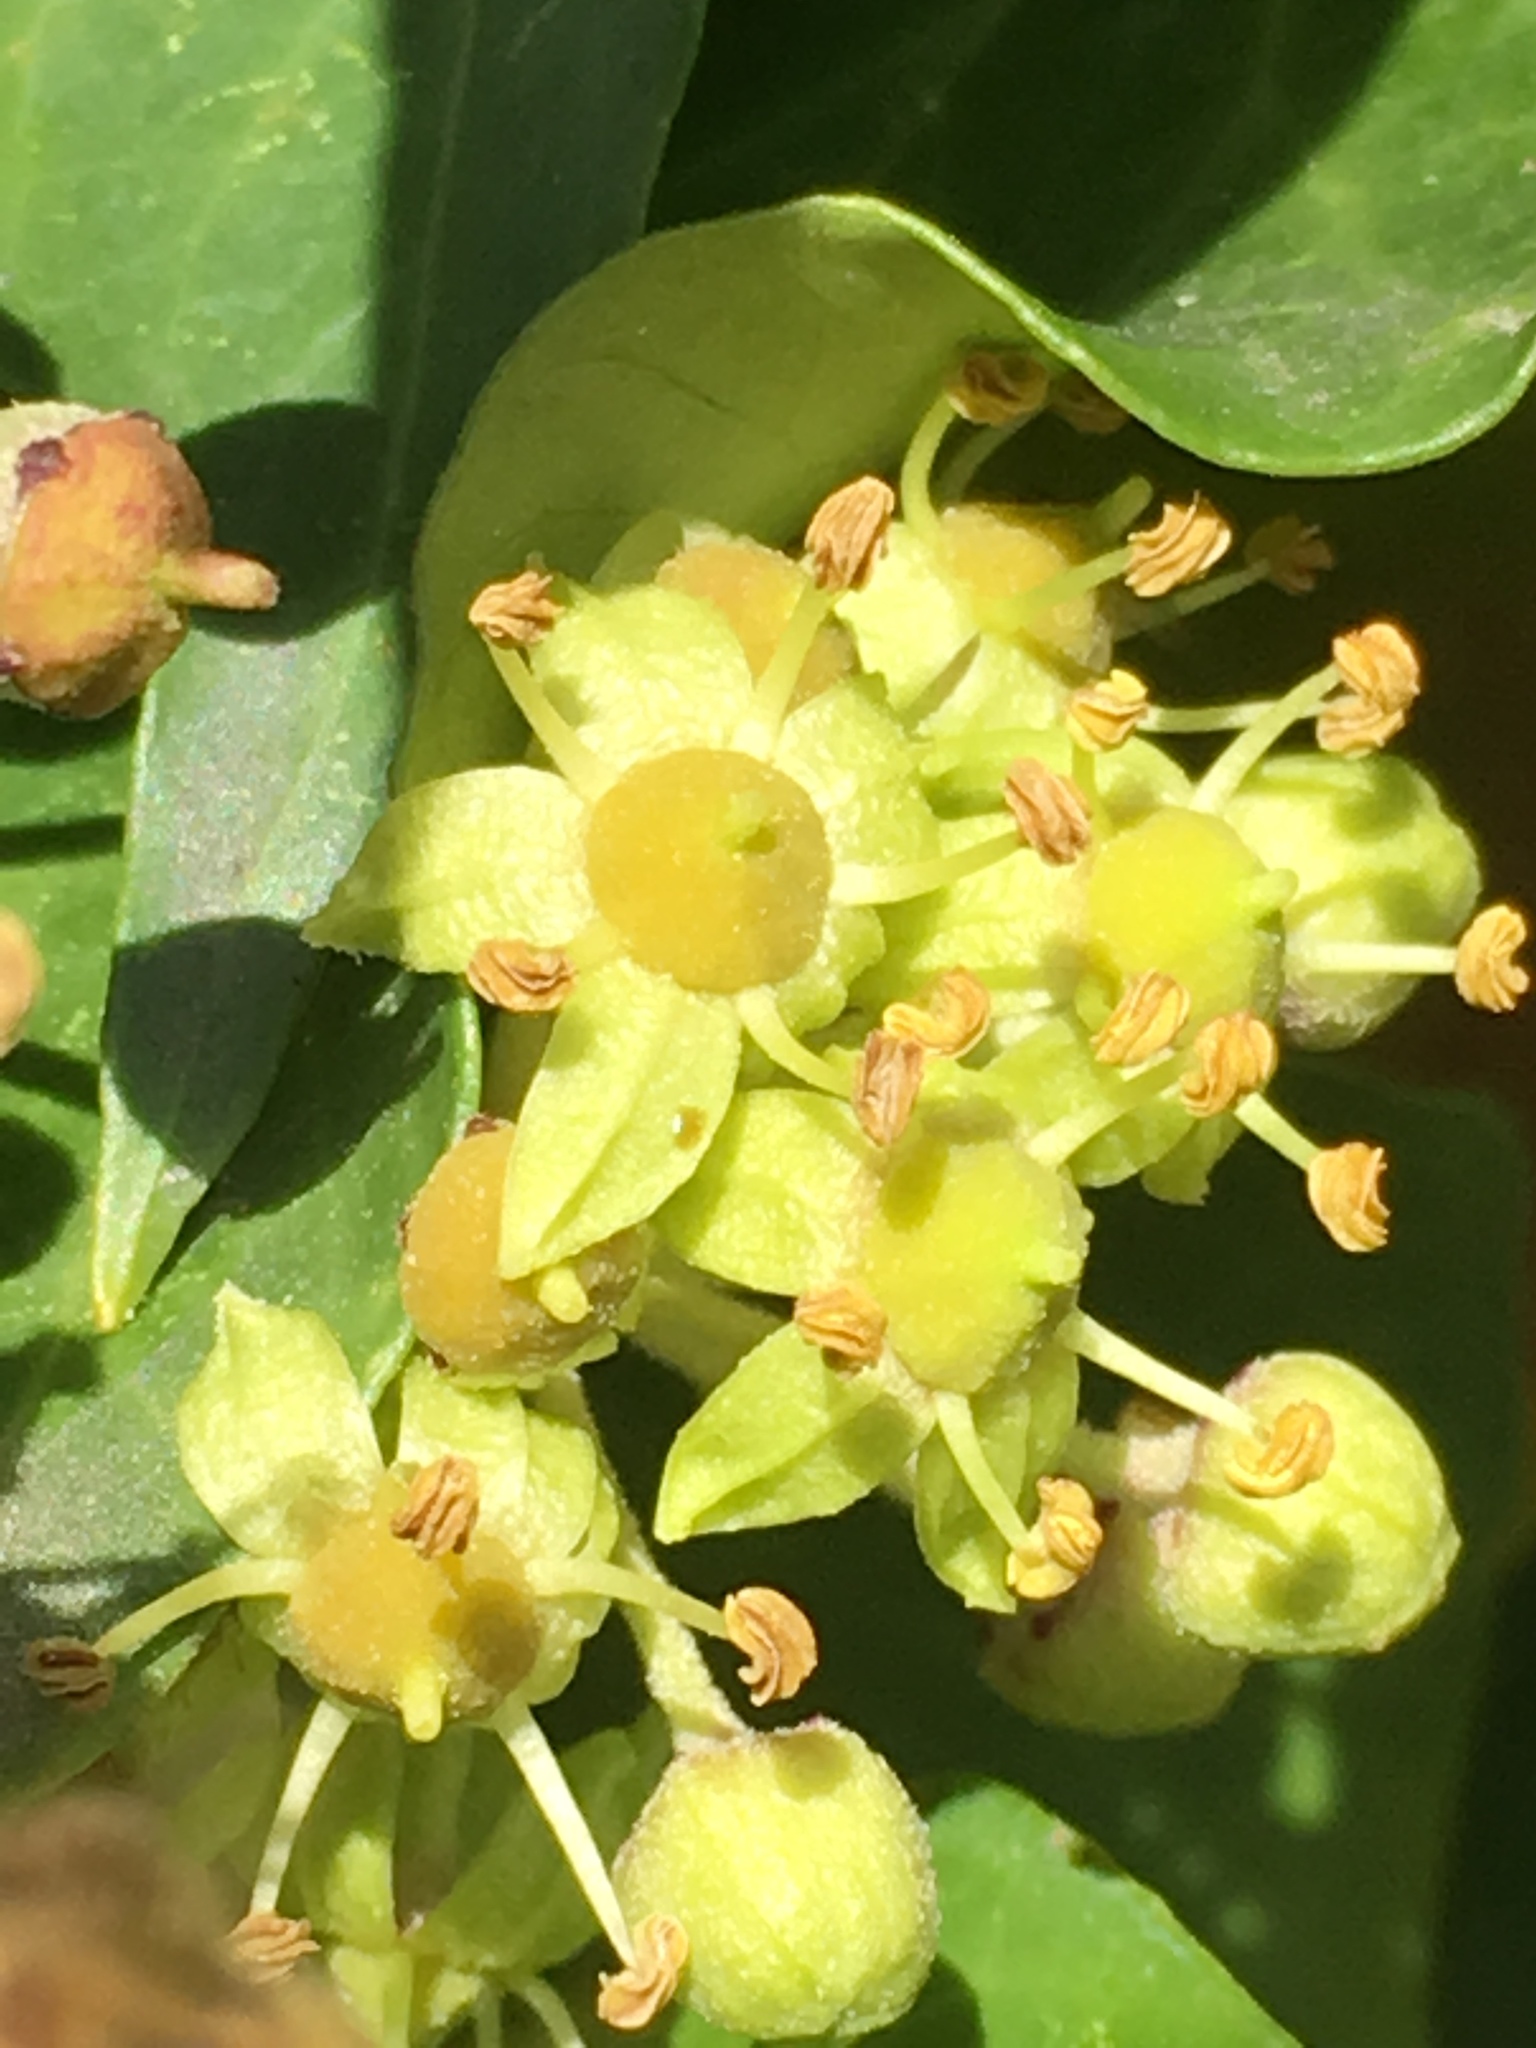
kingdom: Plantae
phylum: Tracheophyta
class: Magnoliopsida
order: Apiales
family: Araliaceae
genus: Hedera
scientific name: Hedera helix
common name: Ivy
